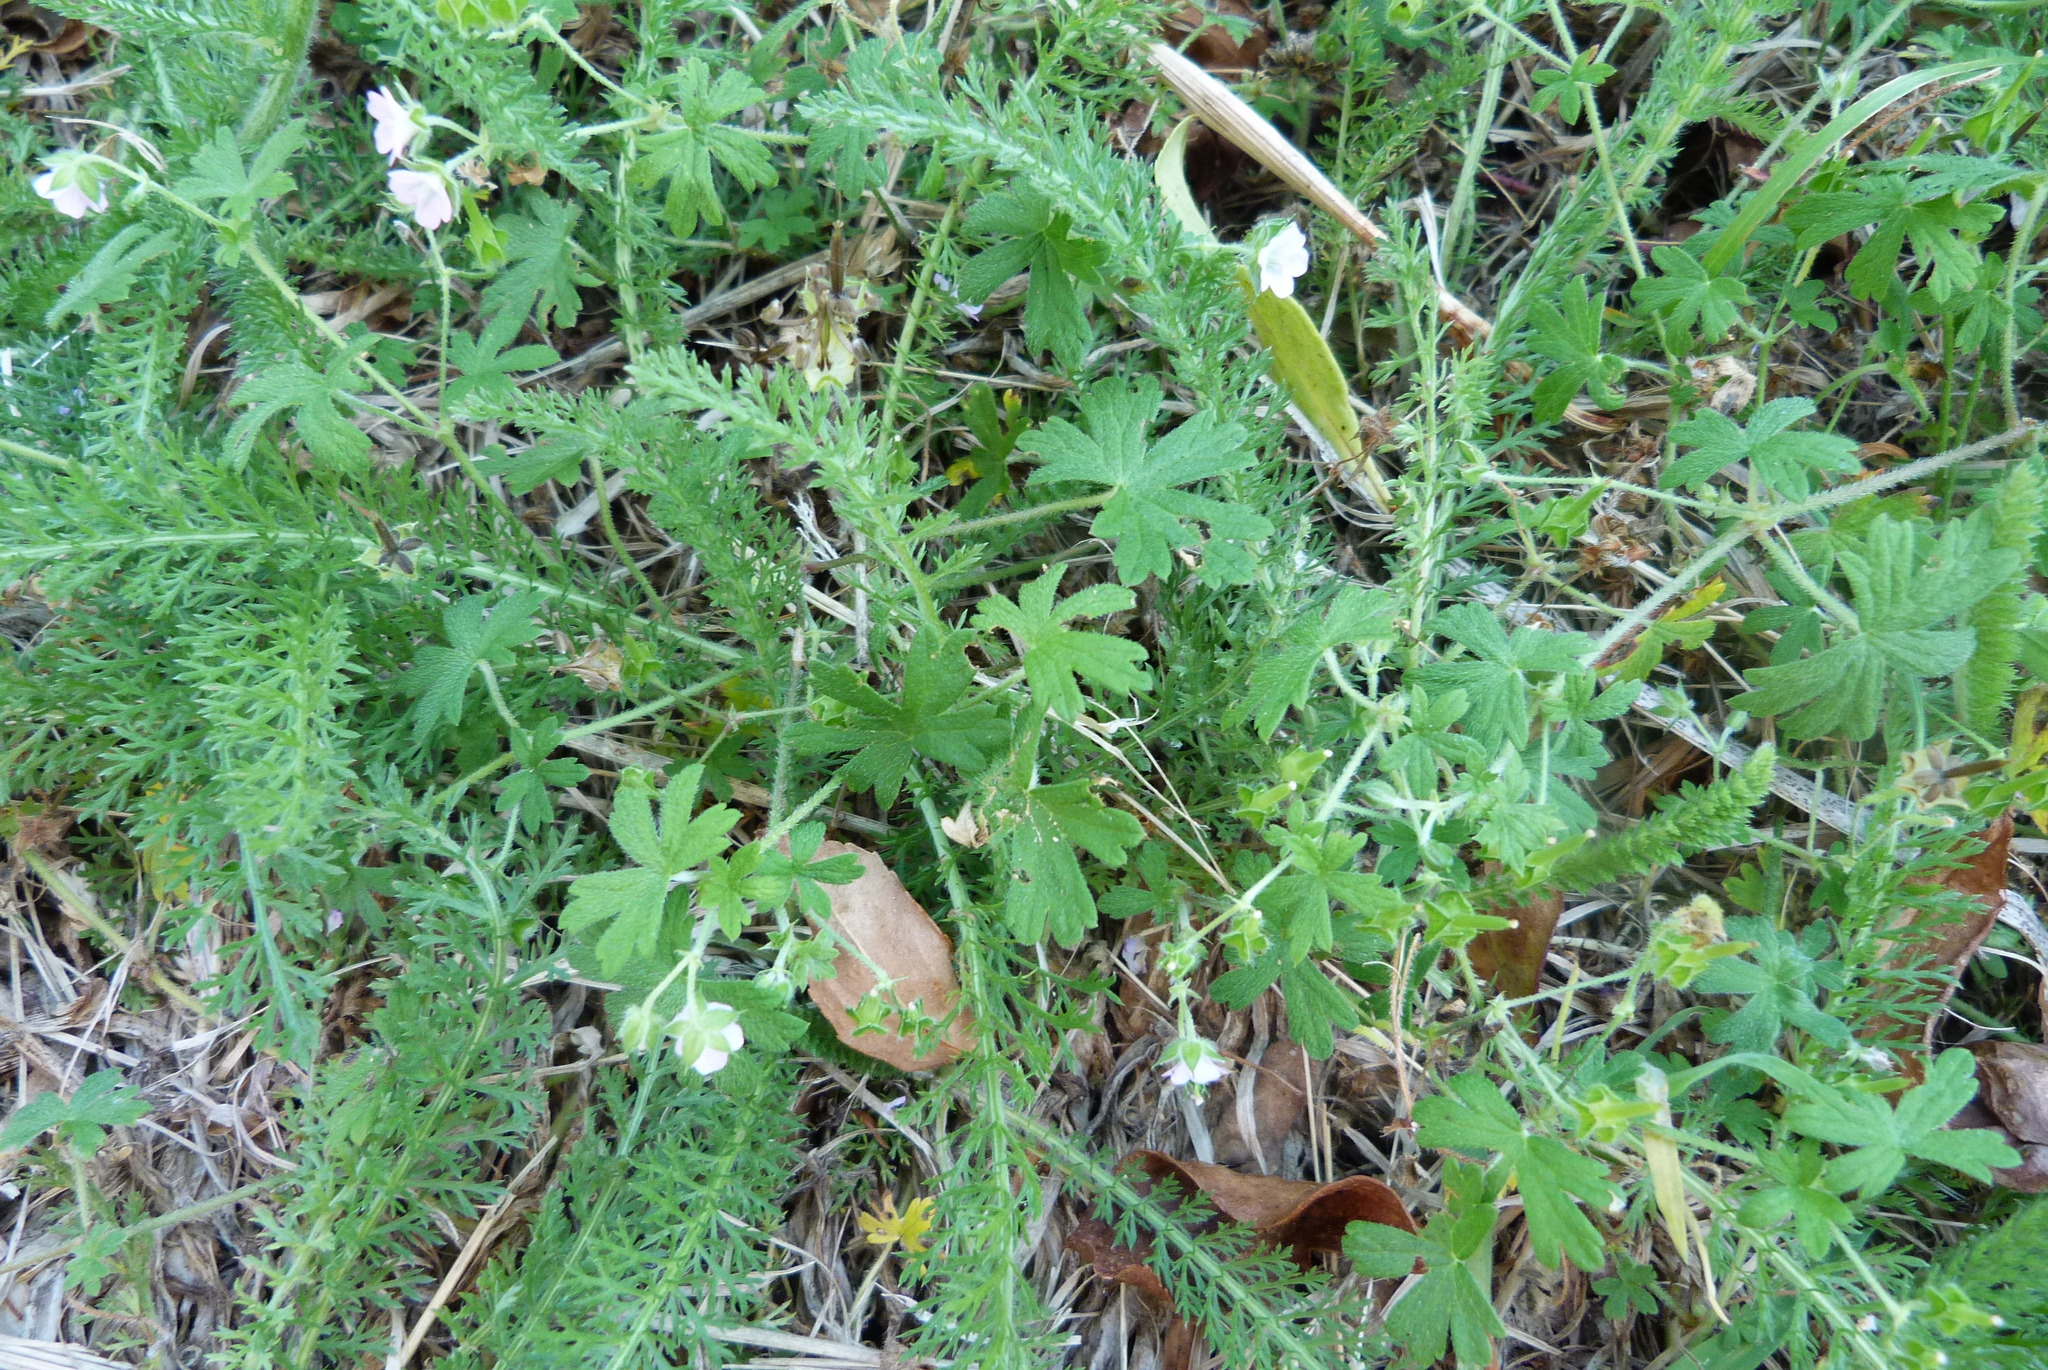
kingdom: Plantae
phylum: Tracheophyta
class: Magnoliopsida
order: Asterales
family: Asteraceae
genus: Achillea
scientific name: Achillea millefolium
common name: Yarrow
